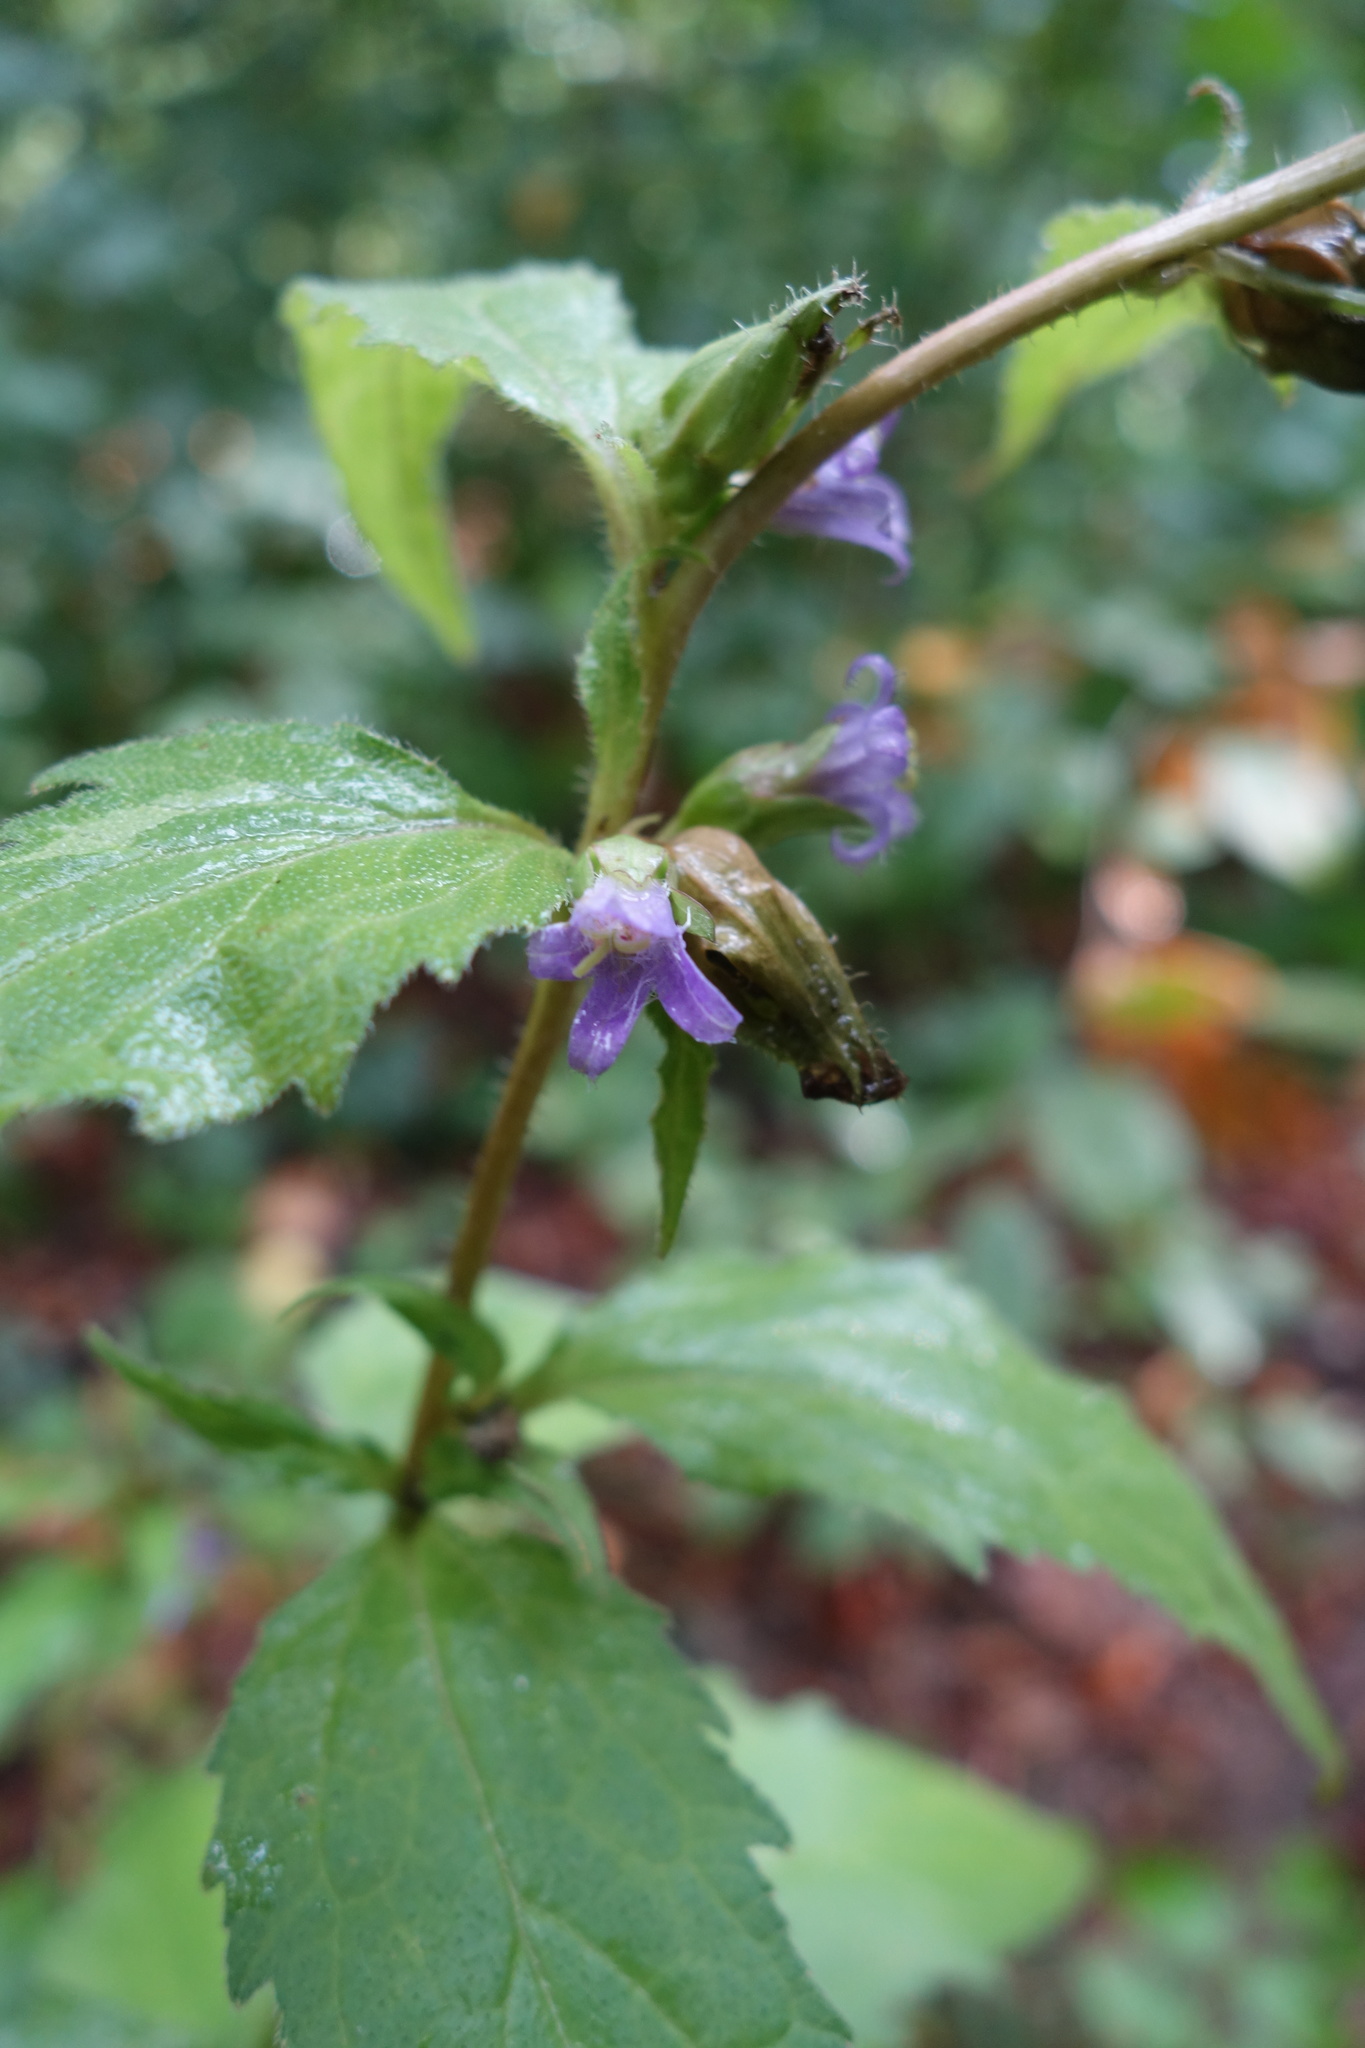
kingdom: Plantae
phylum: Tracheophyta
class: Magnoliopsida
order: Asterales
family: Campanulaceae
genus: Campanula
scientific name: Campanula trachelium
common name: Nettle-leaved bellflower
